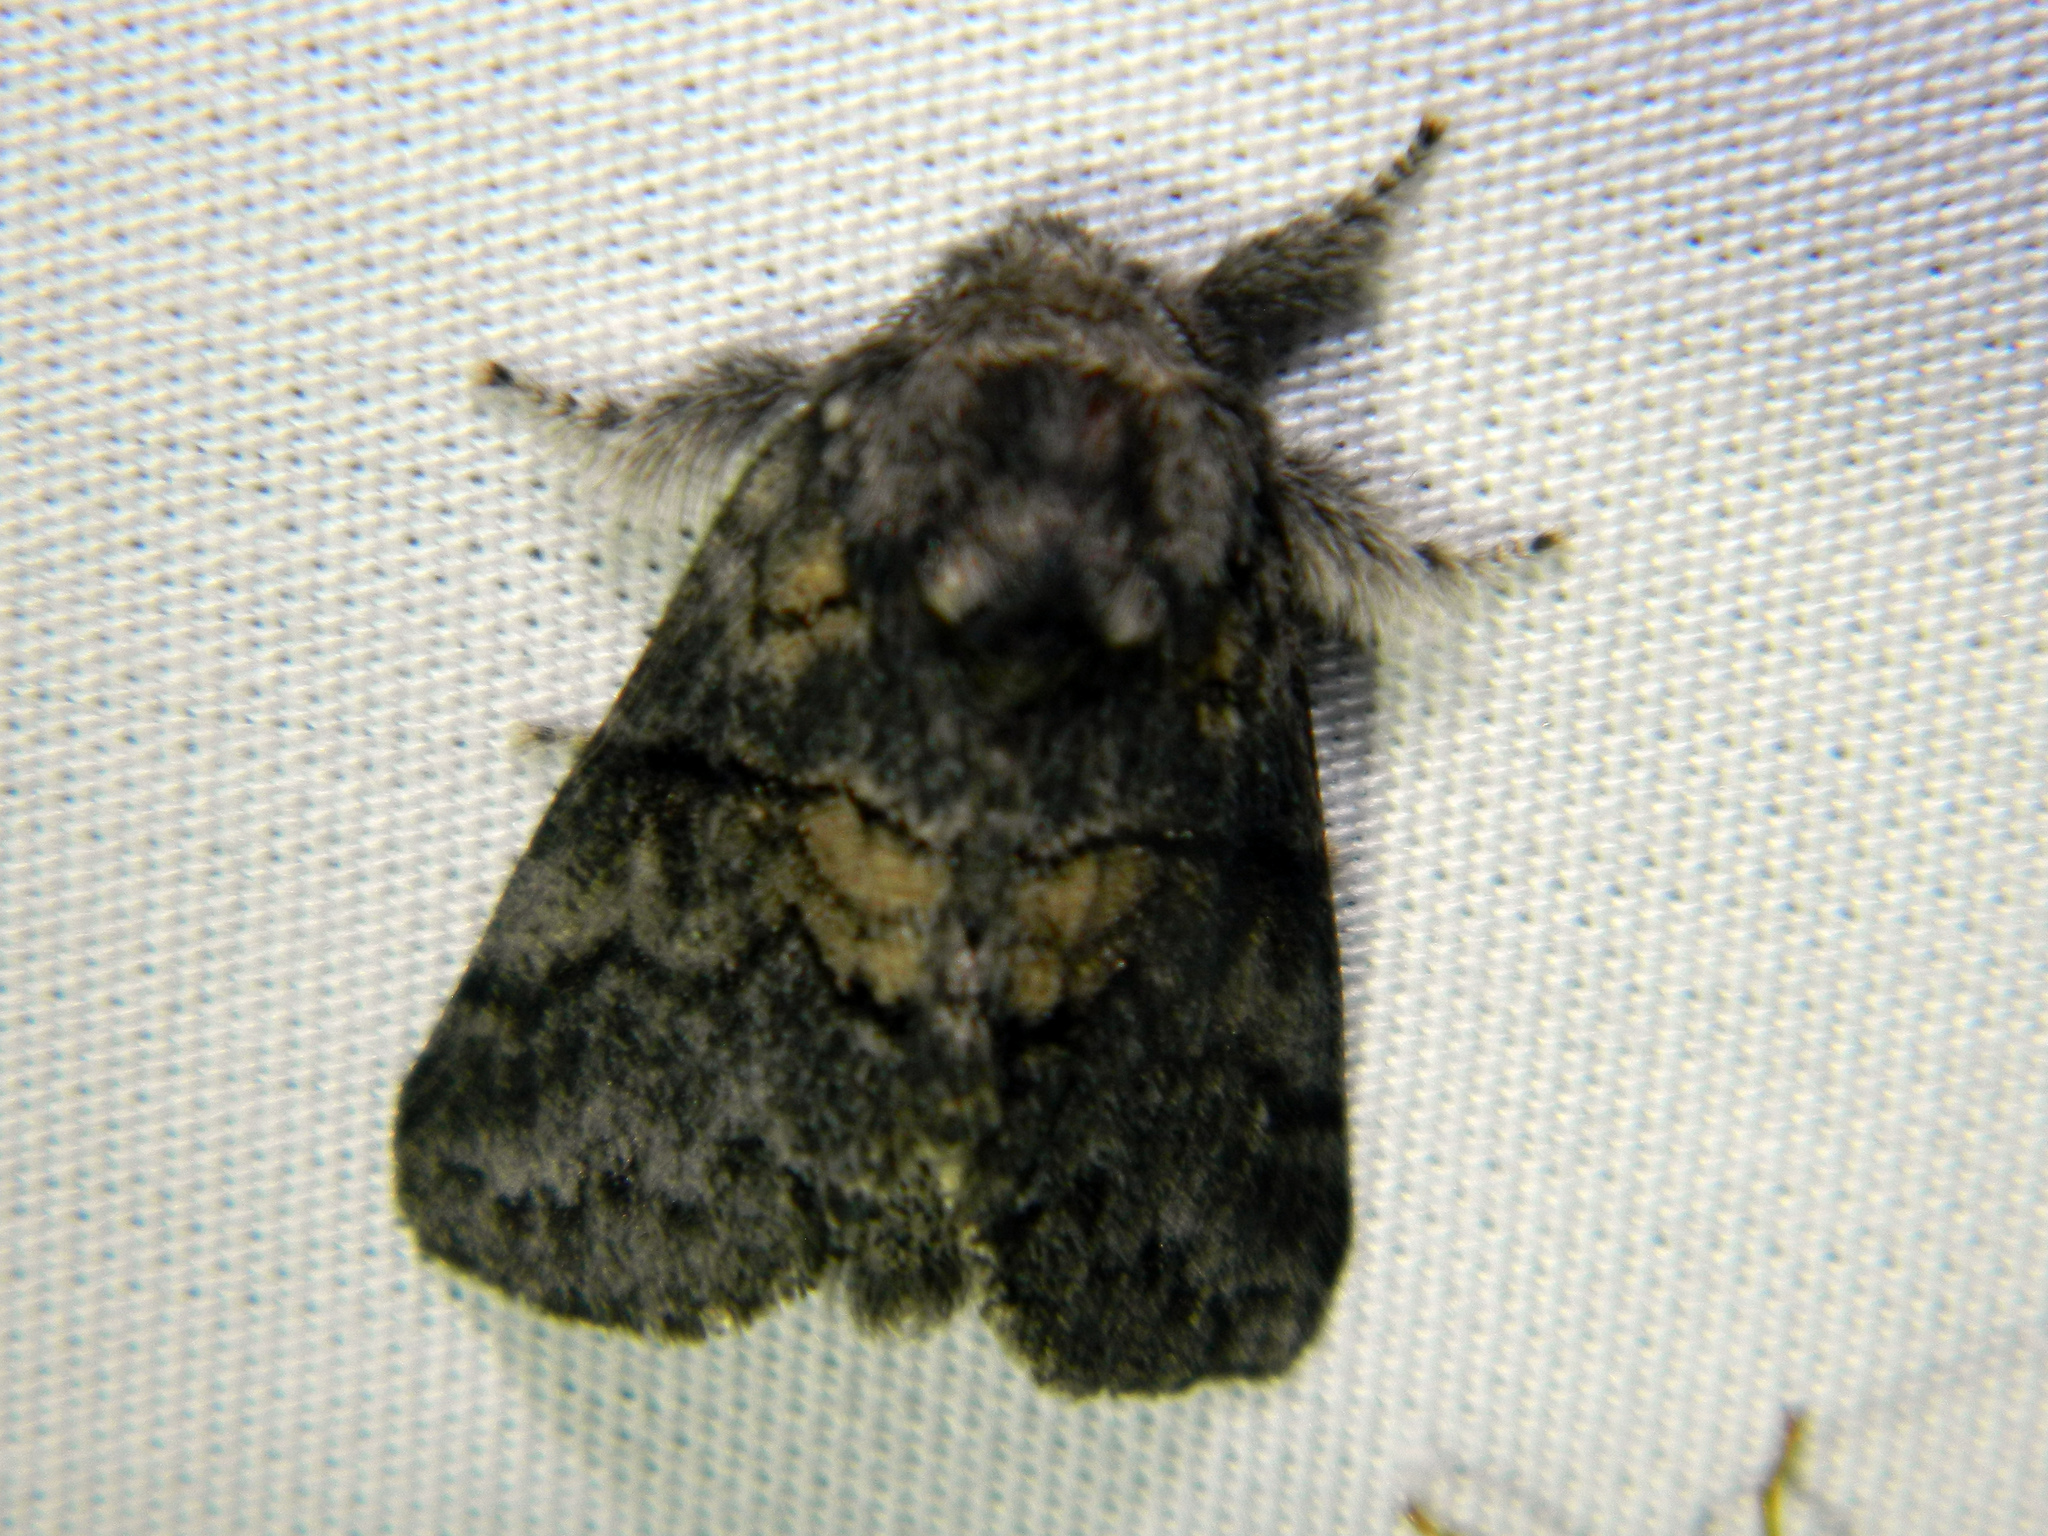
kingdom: Animalia
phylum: Arthropoda
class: Insecta
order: Lepidoptera
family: Notodontidae
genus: Gluphisia
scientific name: Gluphisia septentrionis
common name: Common gluphisia
